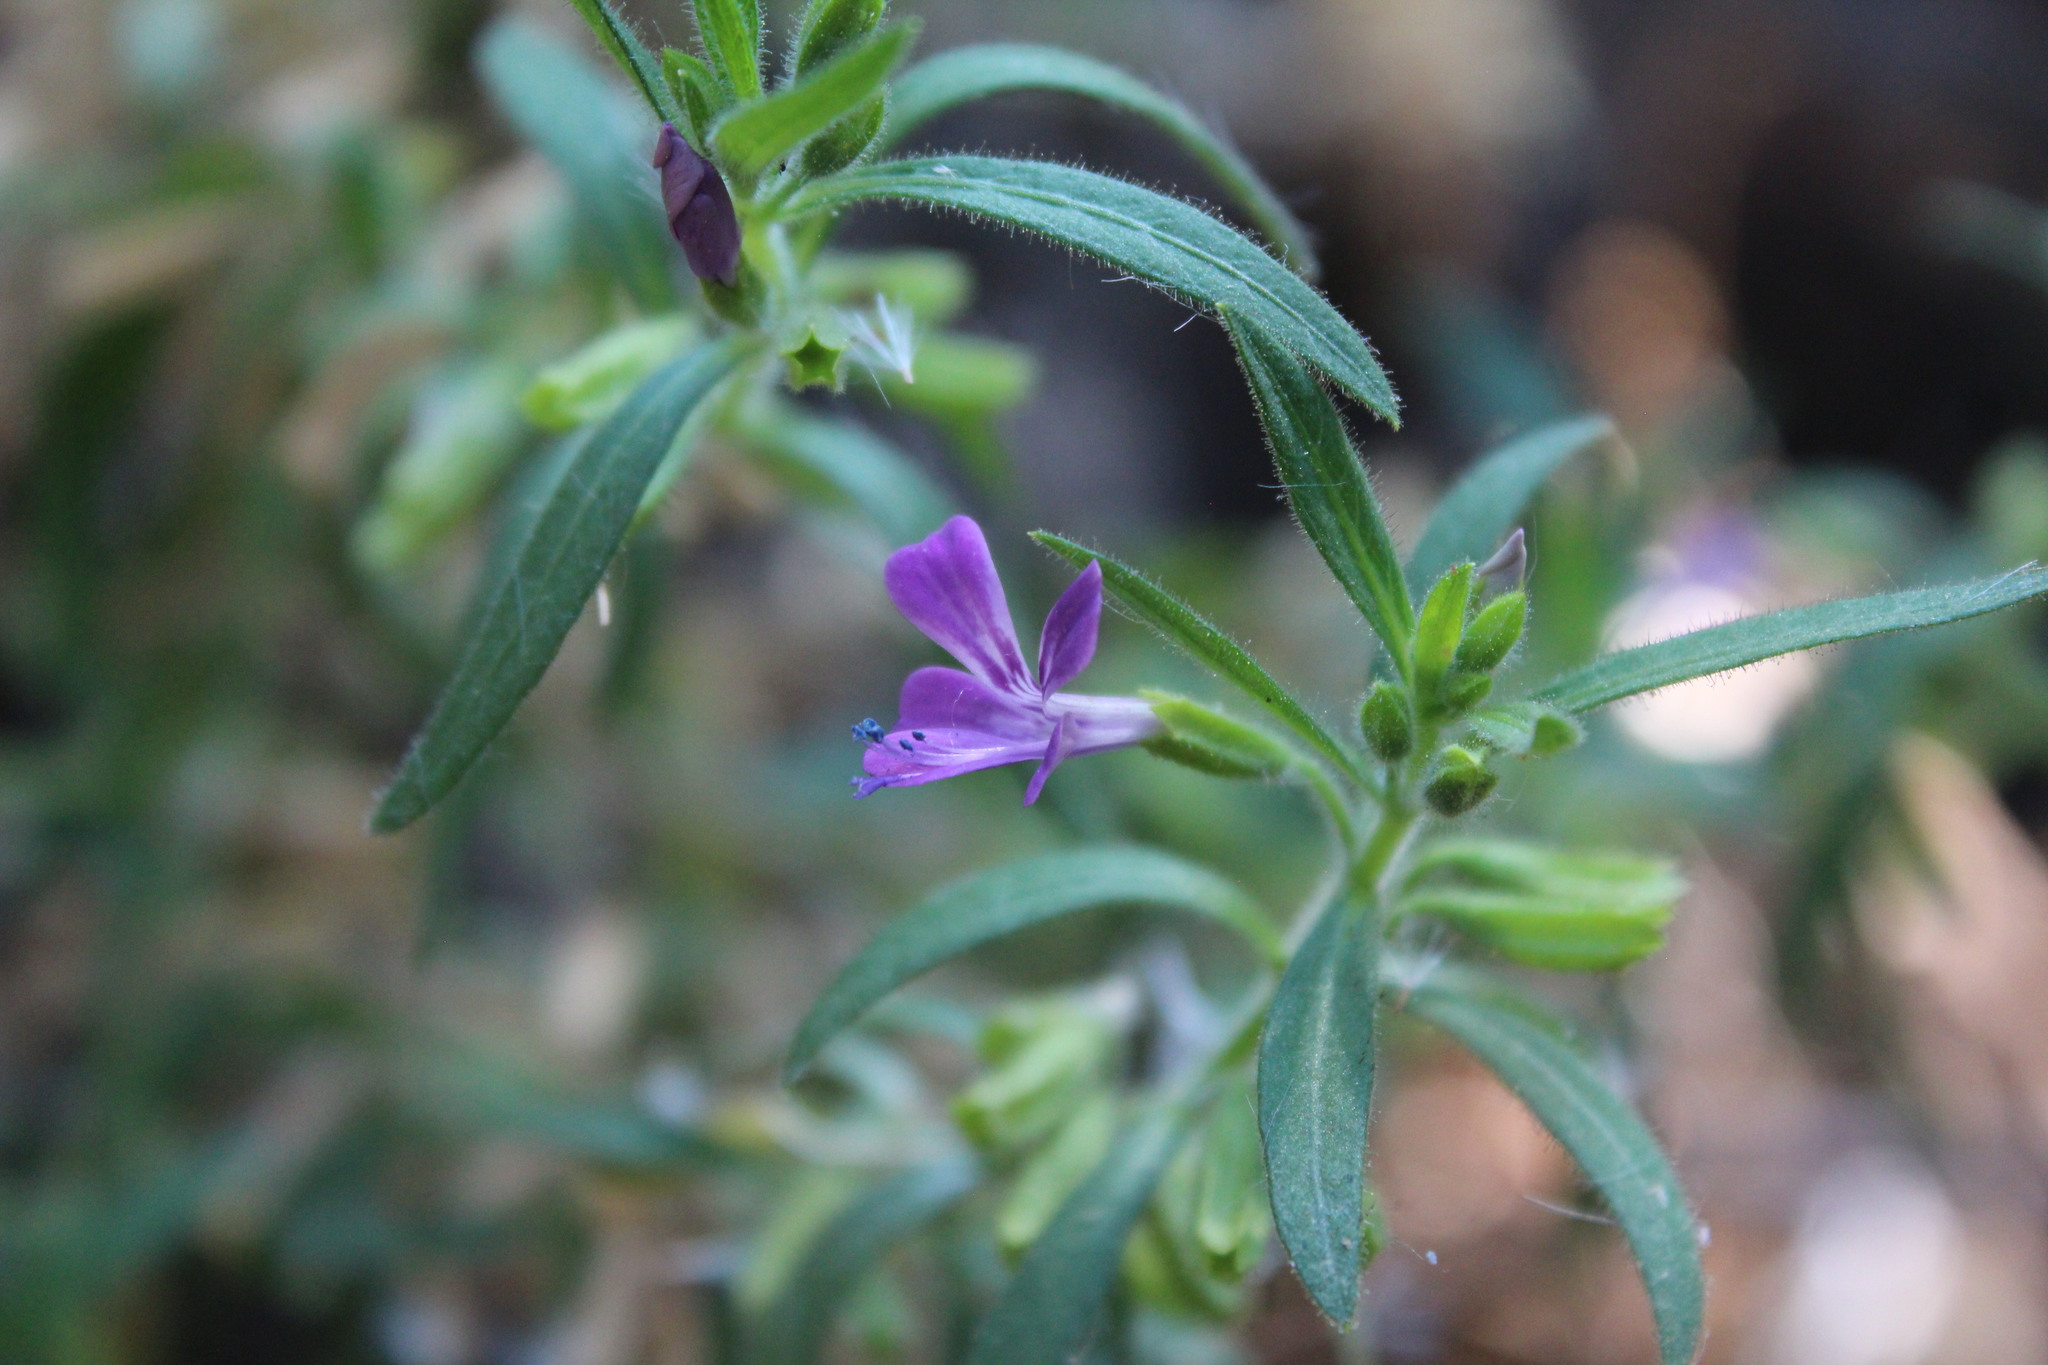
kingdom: Plantae
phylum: Tracheophyta
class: Magnoliopsida
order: Ericales
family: Polemoniaceae
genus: Bonplandia
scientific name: Bonplandia geminiflora
